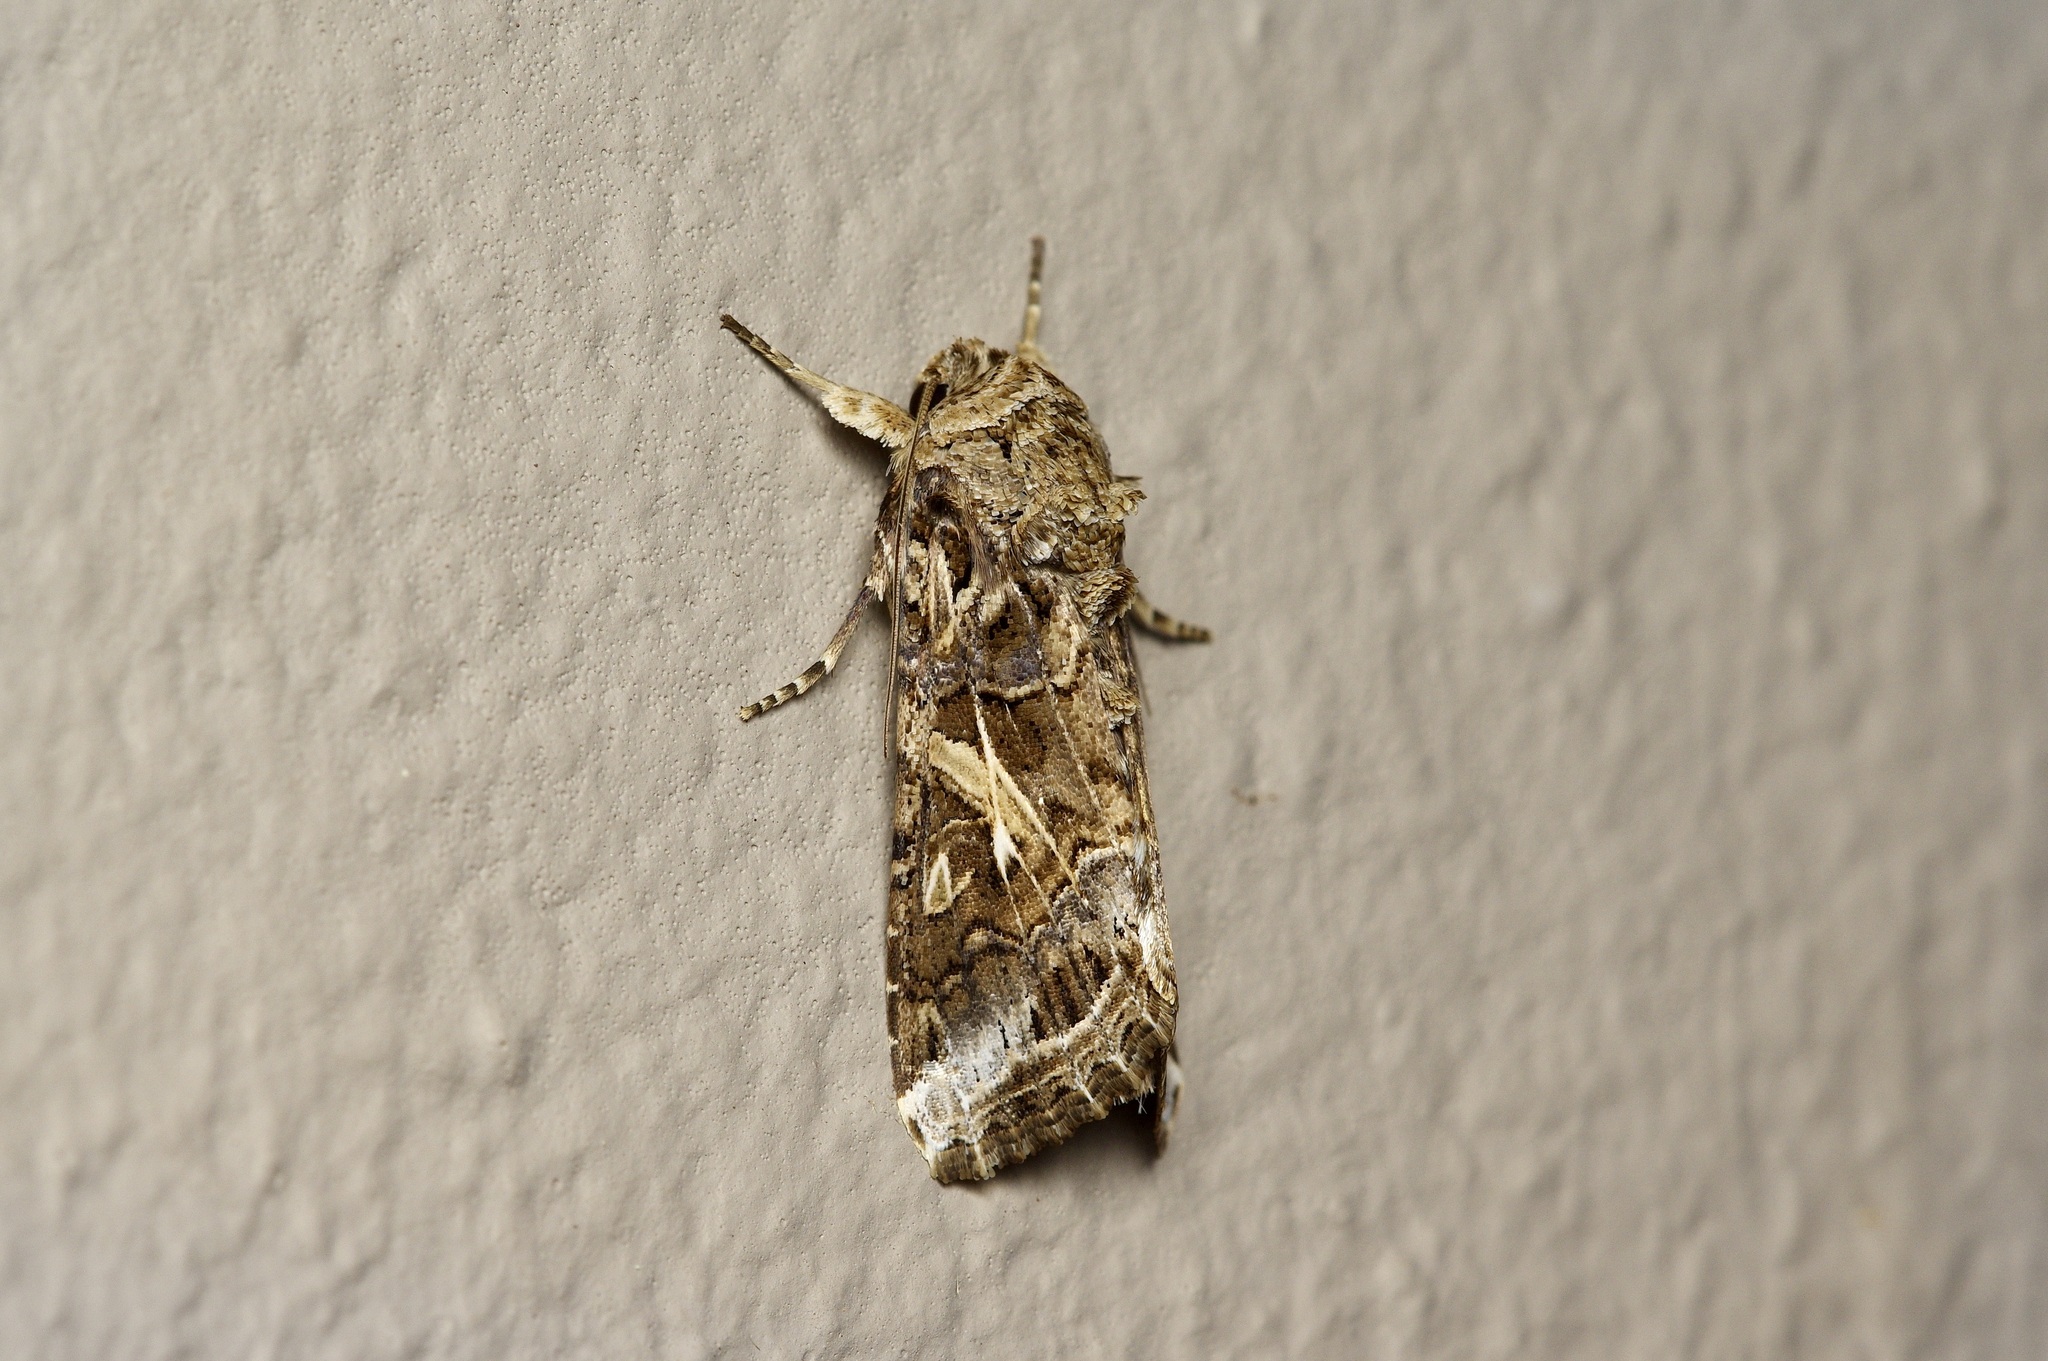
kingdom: Animalia
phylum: Arthropoda
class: Insecta
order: Lepidoptera
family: Noctuidae
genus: Spodoptera
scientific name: Spodoptera ornithogalli
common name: Yellow-striped armyworm
